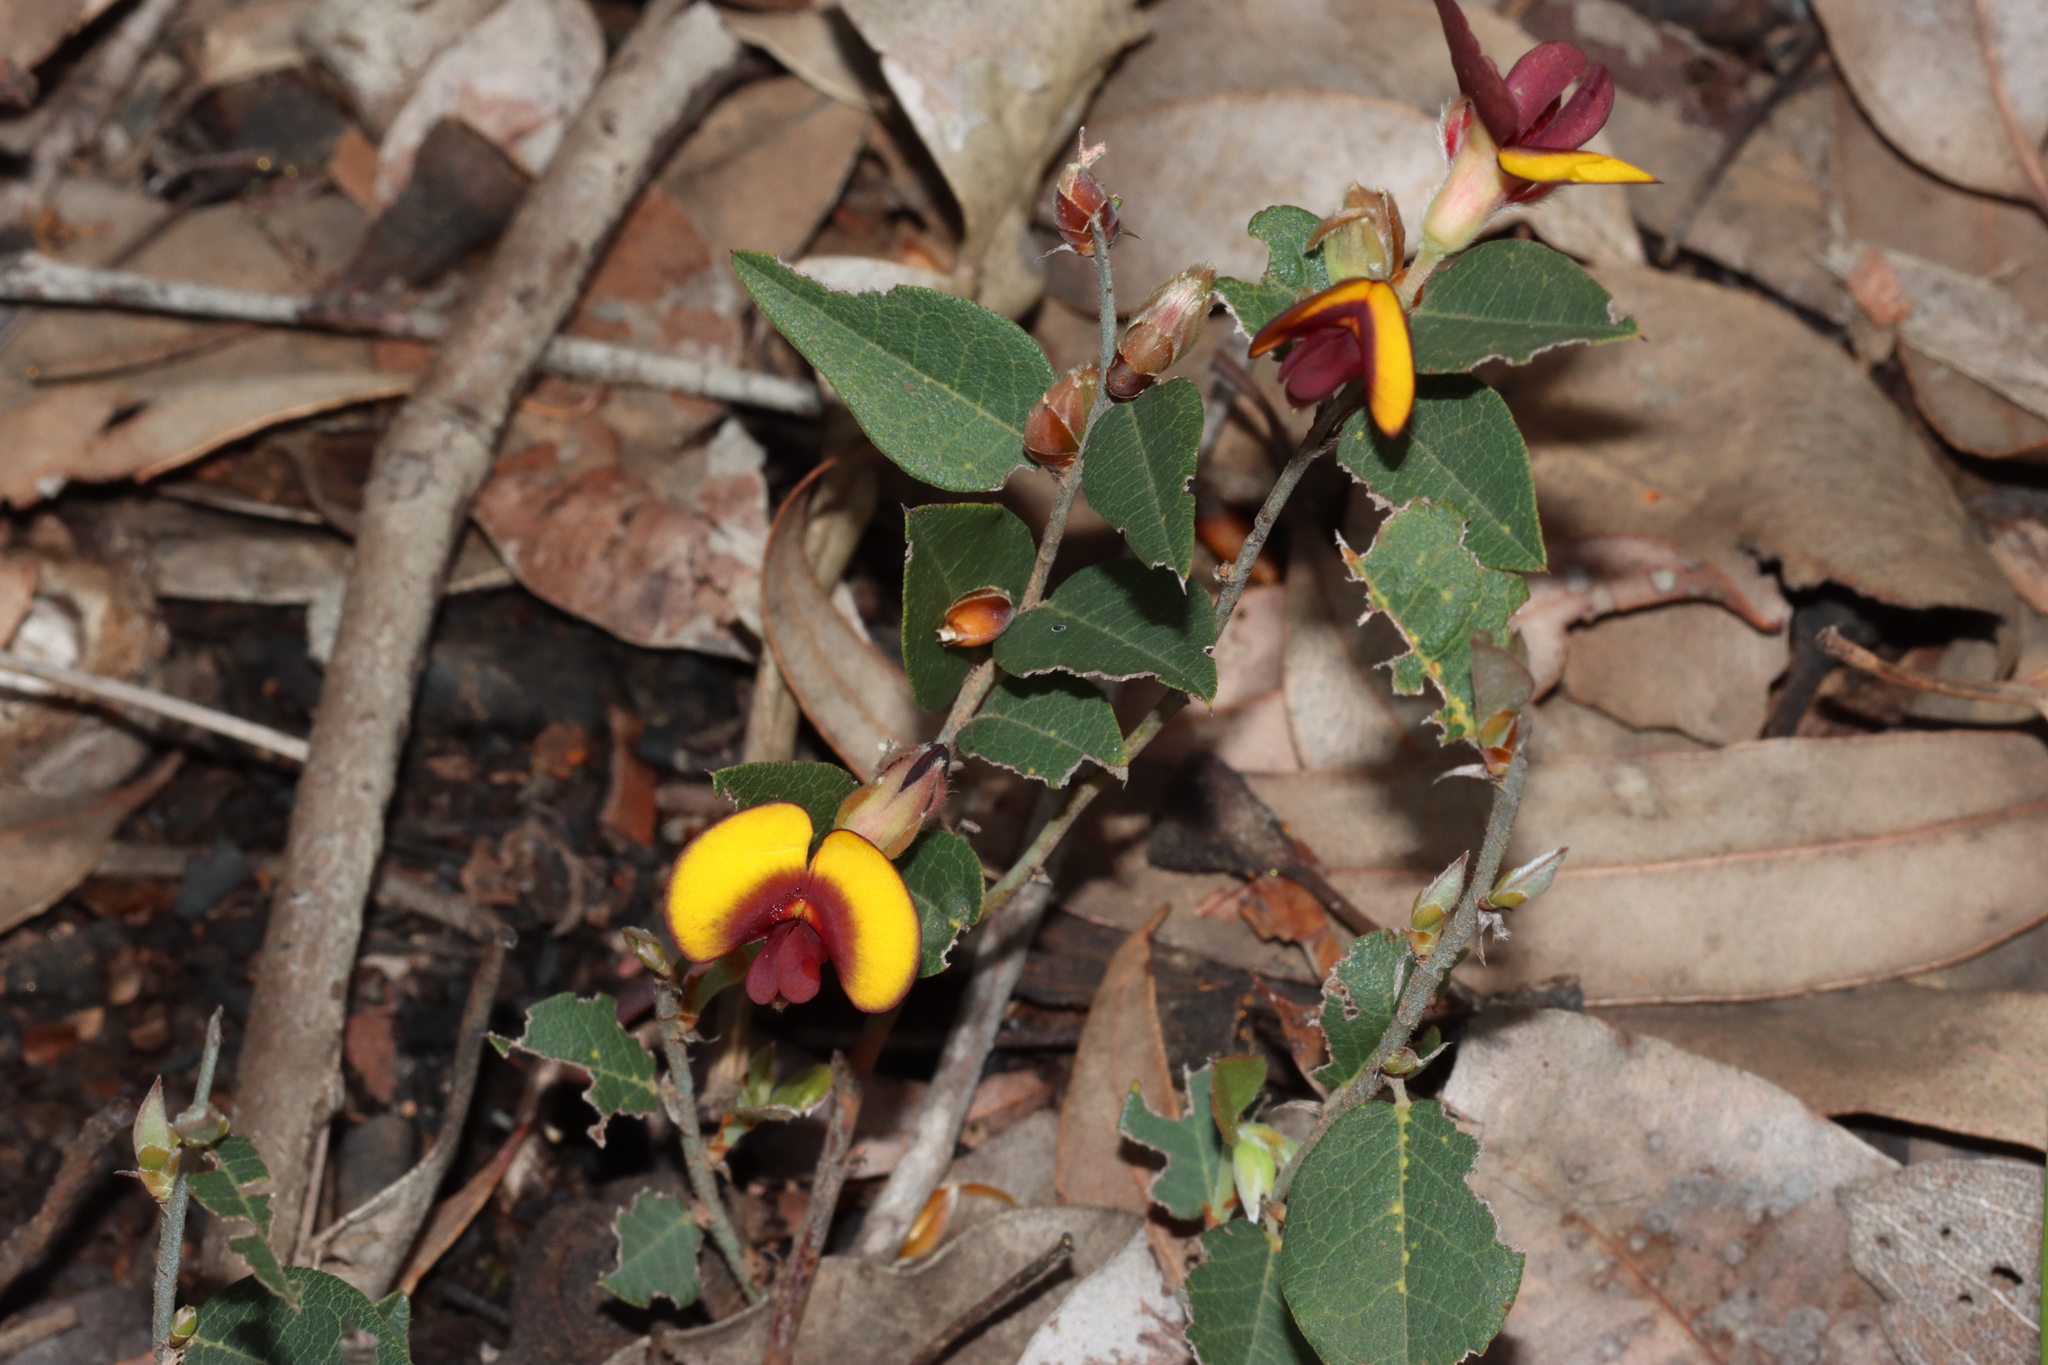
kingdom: Plantae
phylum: Tracheophyta
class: Magnoliopsida
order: Fabales
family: Fabaceae
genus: Bossiaea
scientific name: Bossiaea ornata
